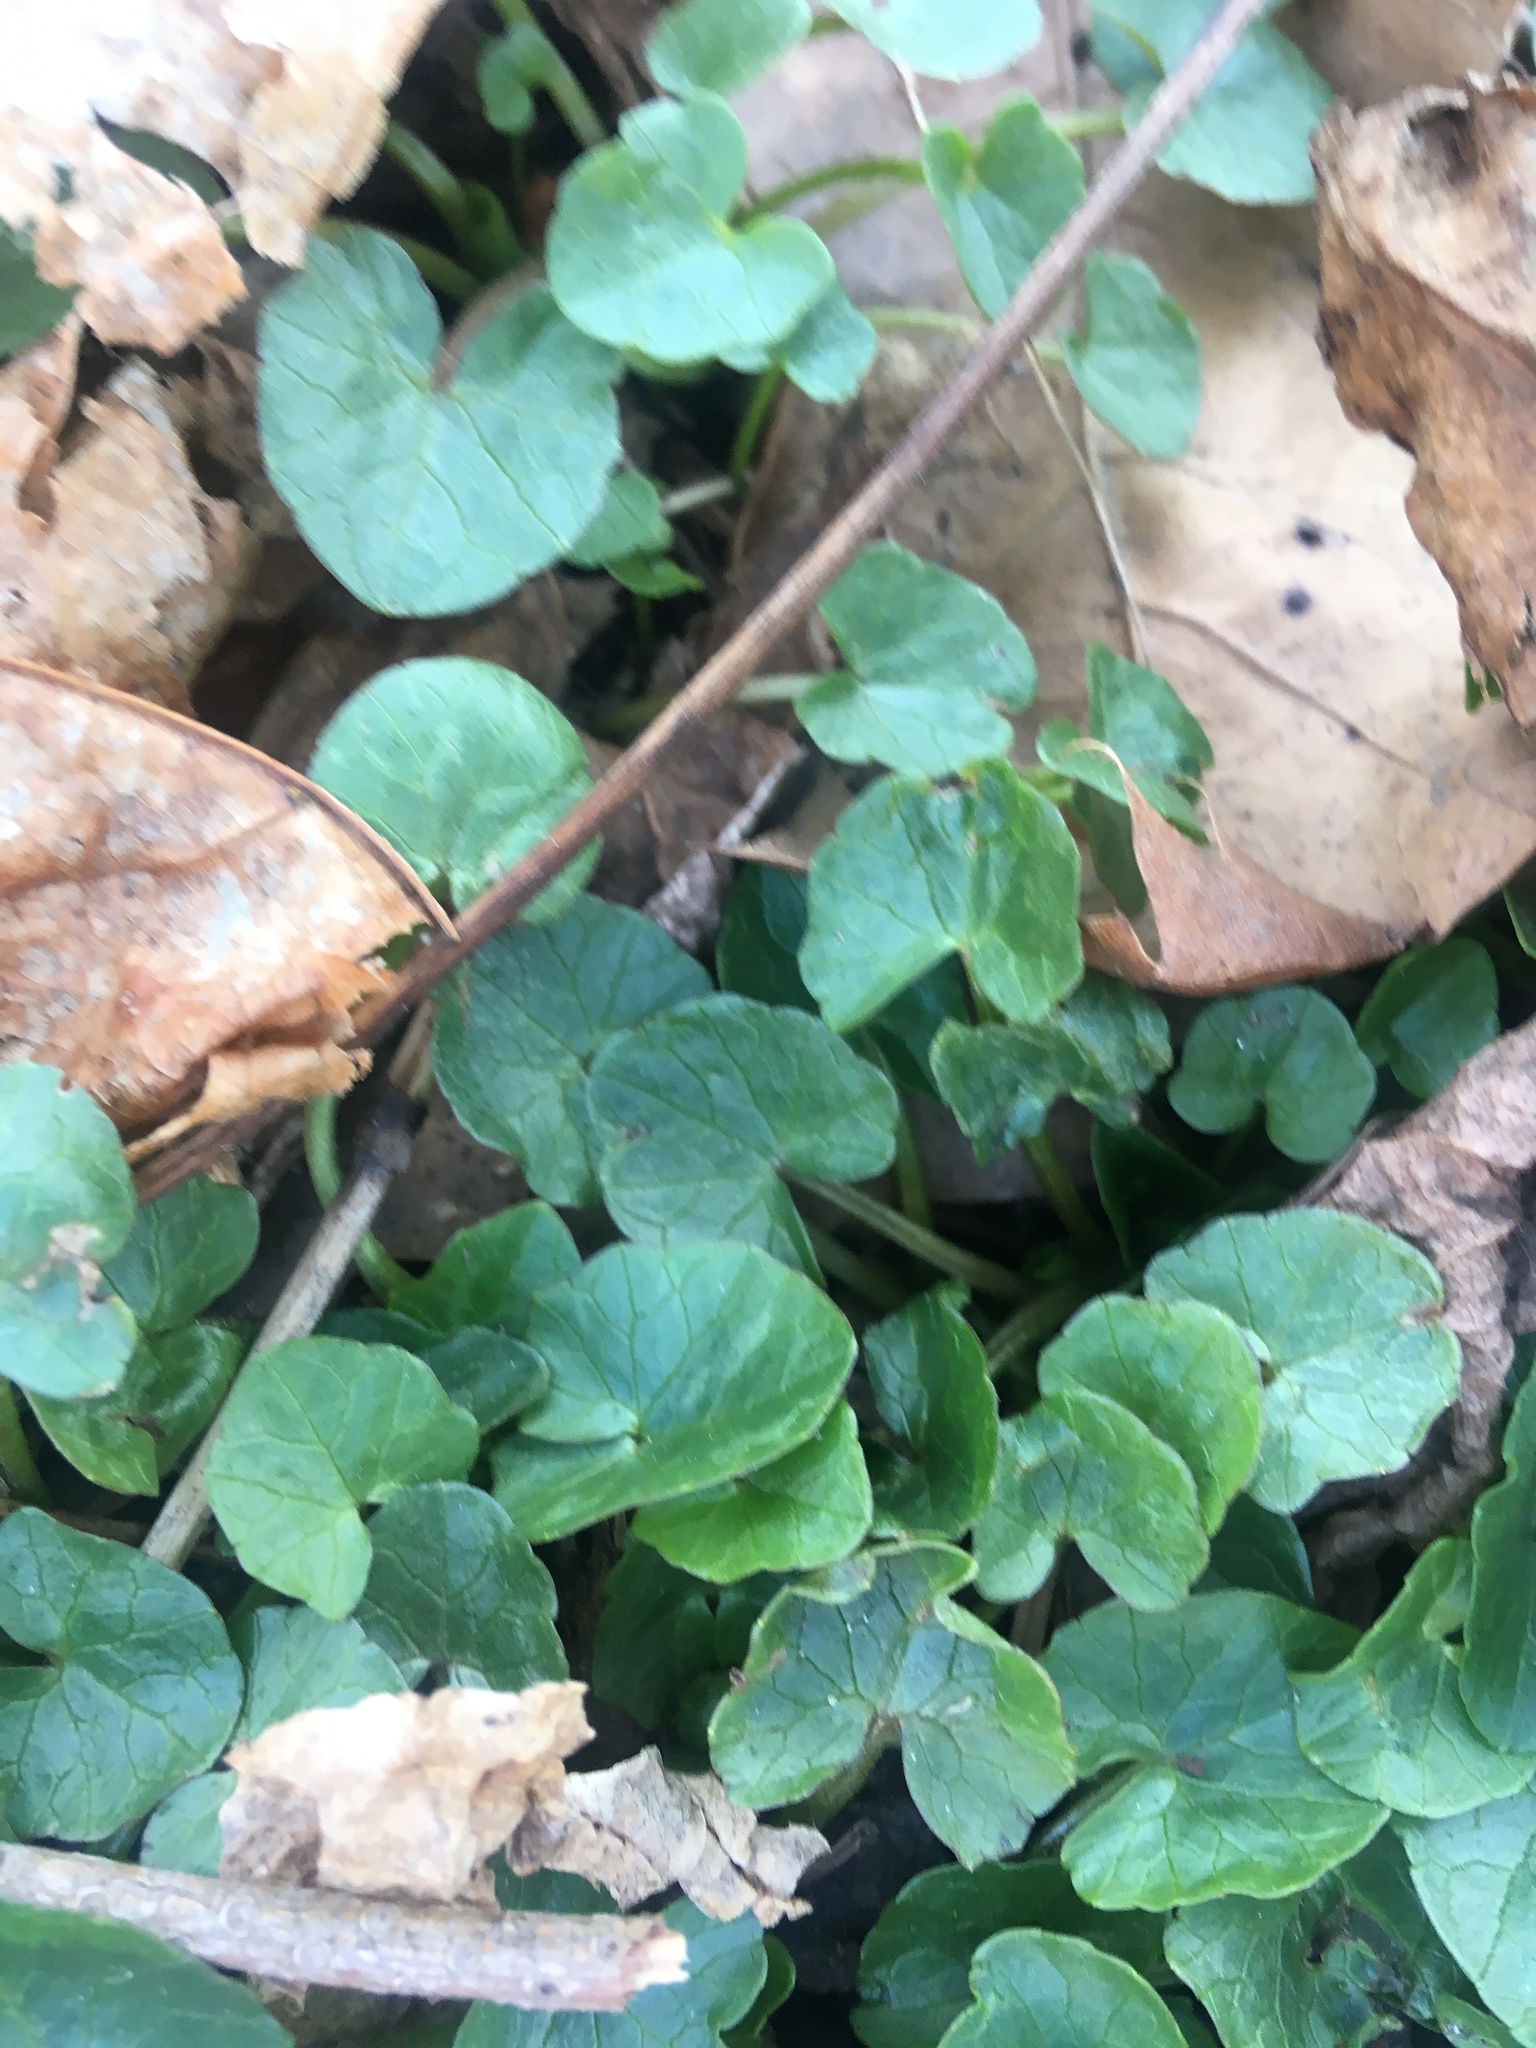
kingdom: Plantae
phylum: Tracheophyta
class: Magnoliopsida
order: Ranunculales
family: Ranunculaceae
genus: Ficaria
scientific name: Ficaria verna
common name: Lesser celandine
